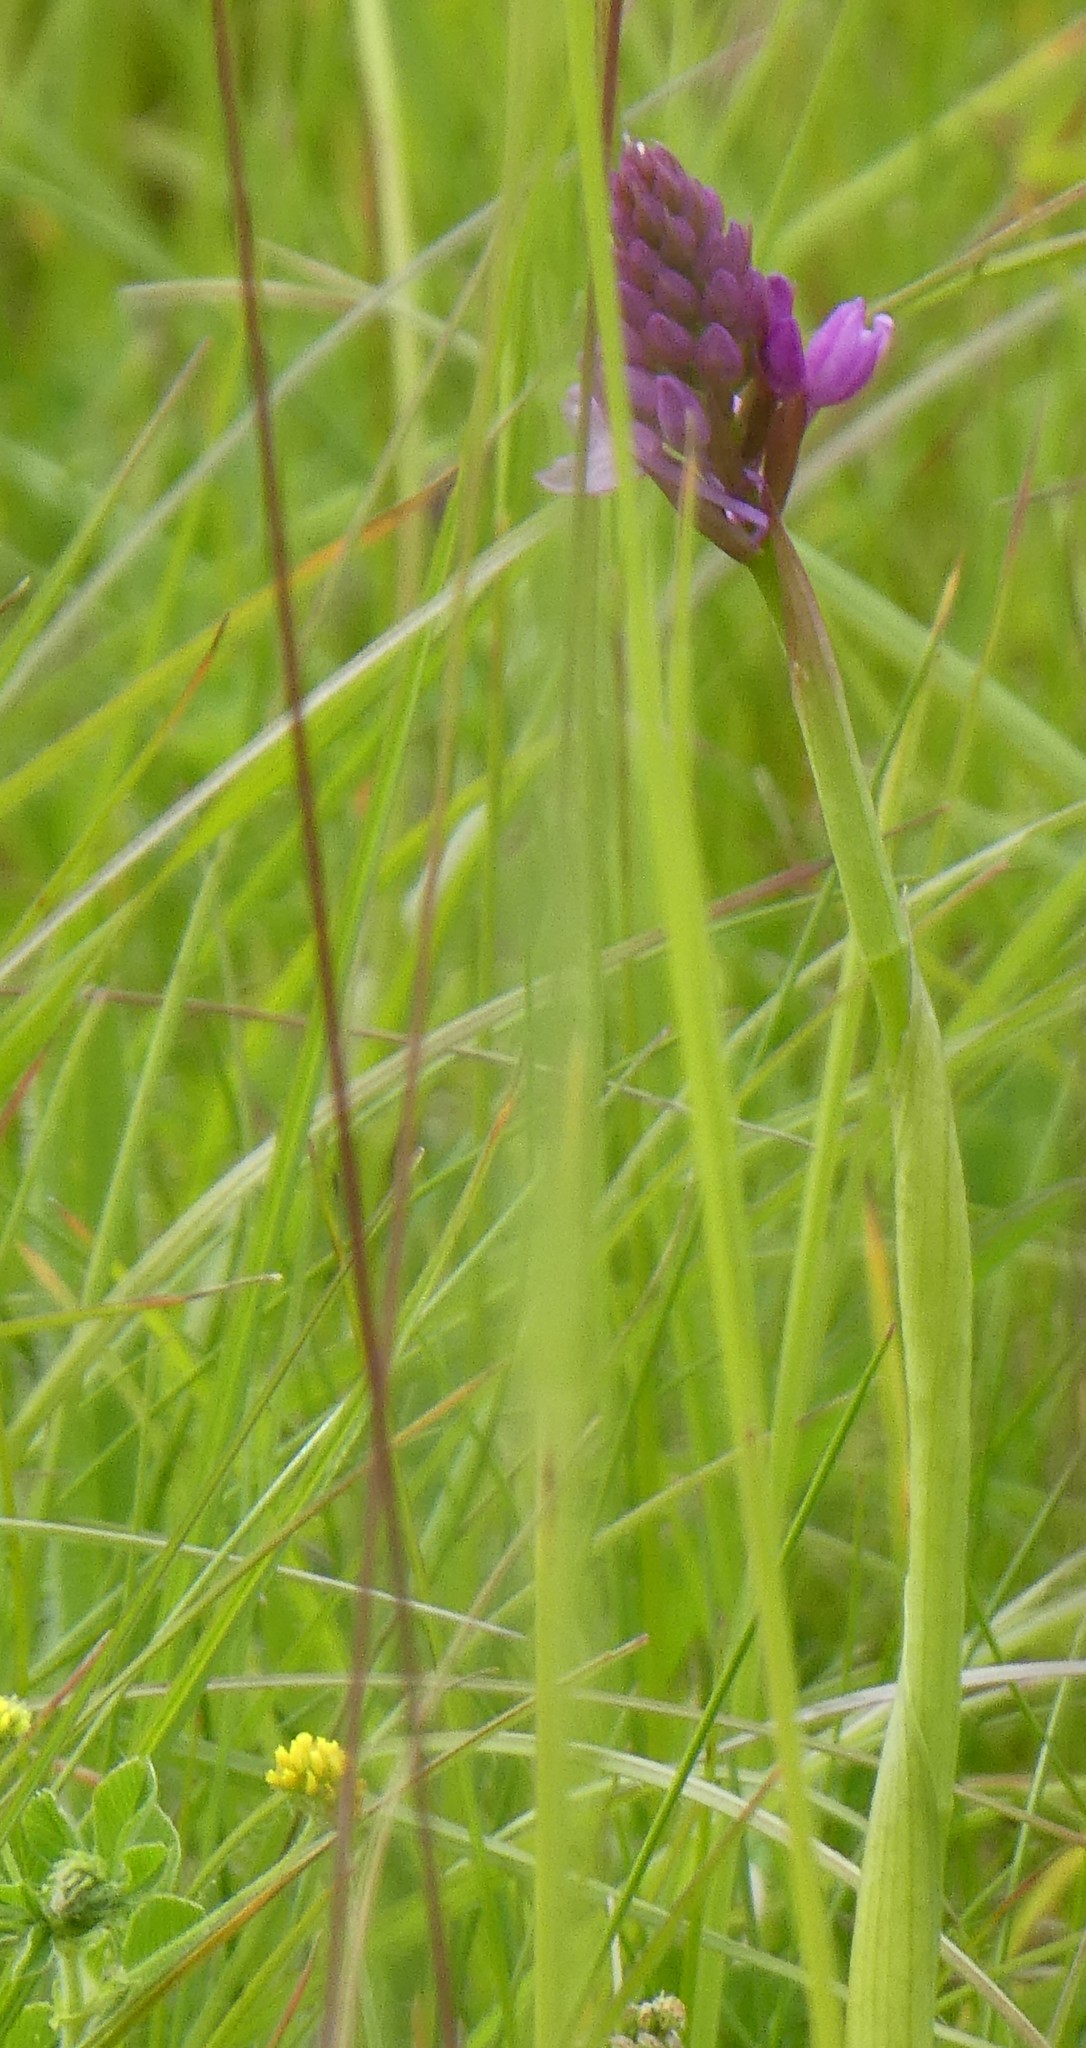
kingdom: Plantae
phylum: Tracheophyta
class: Liliopsida
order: Asparagales
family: Orchidaceae
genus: Anacamptis
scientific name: Anacamptis pyramidalis
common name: Pyramidal orchid
